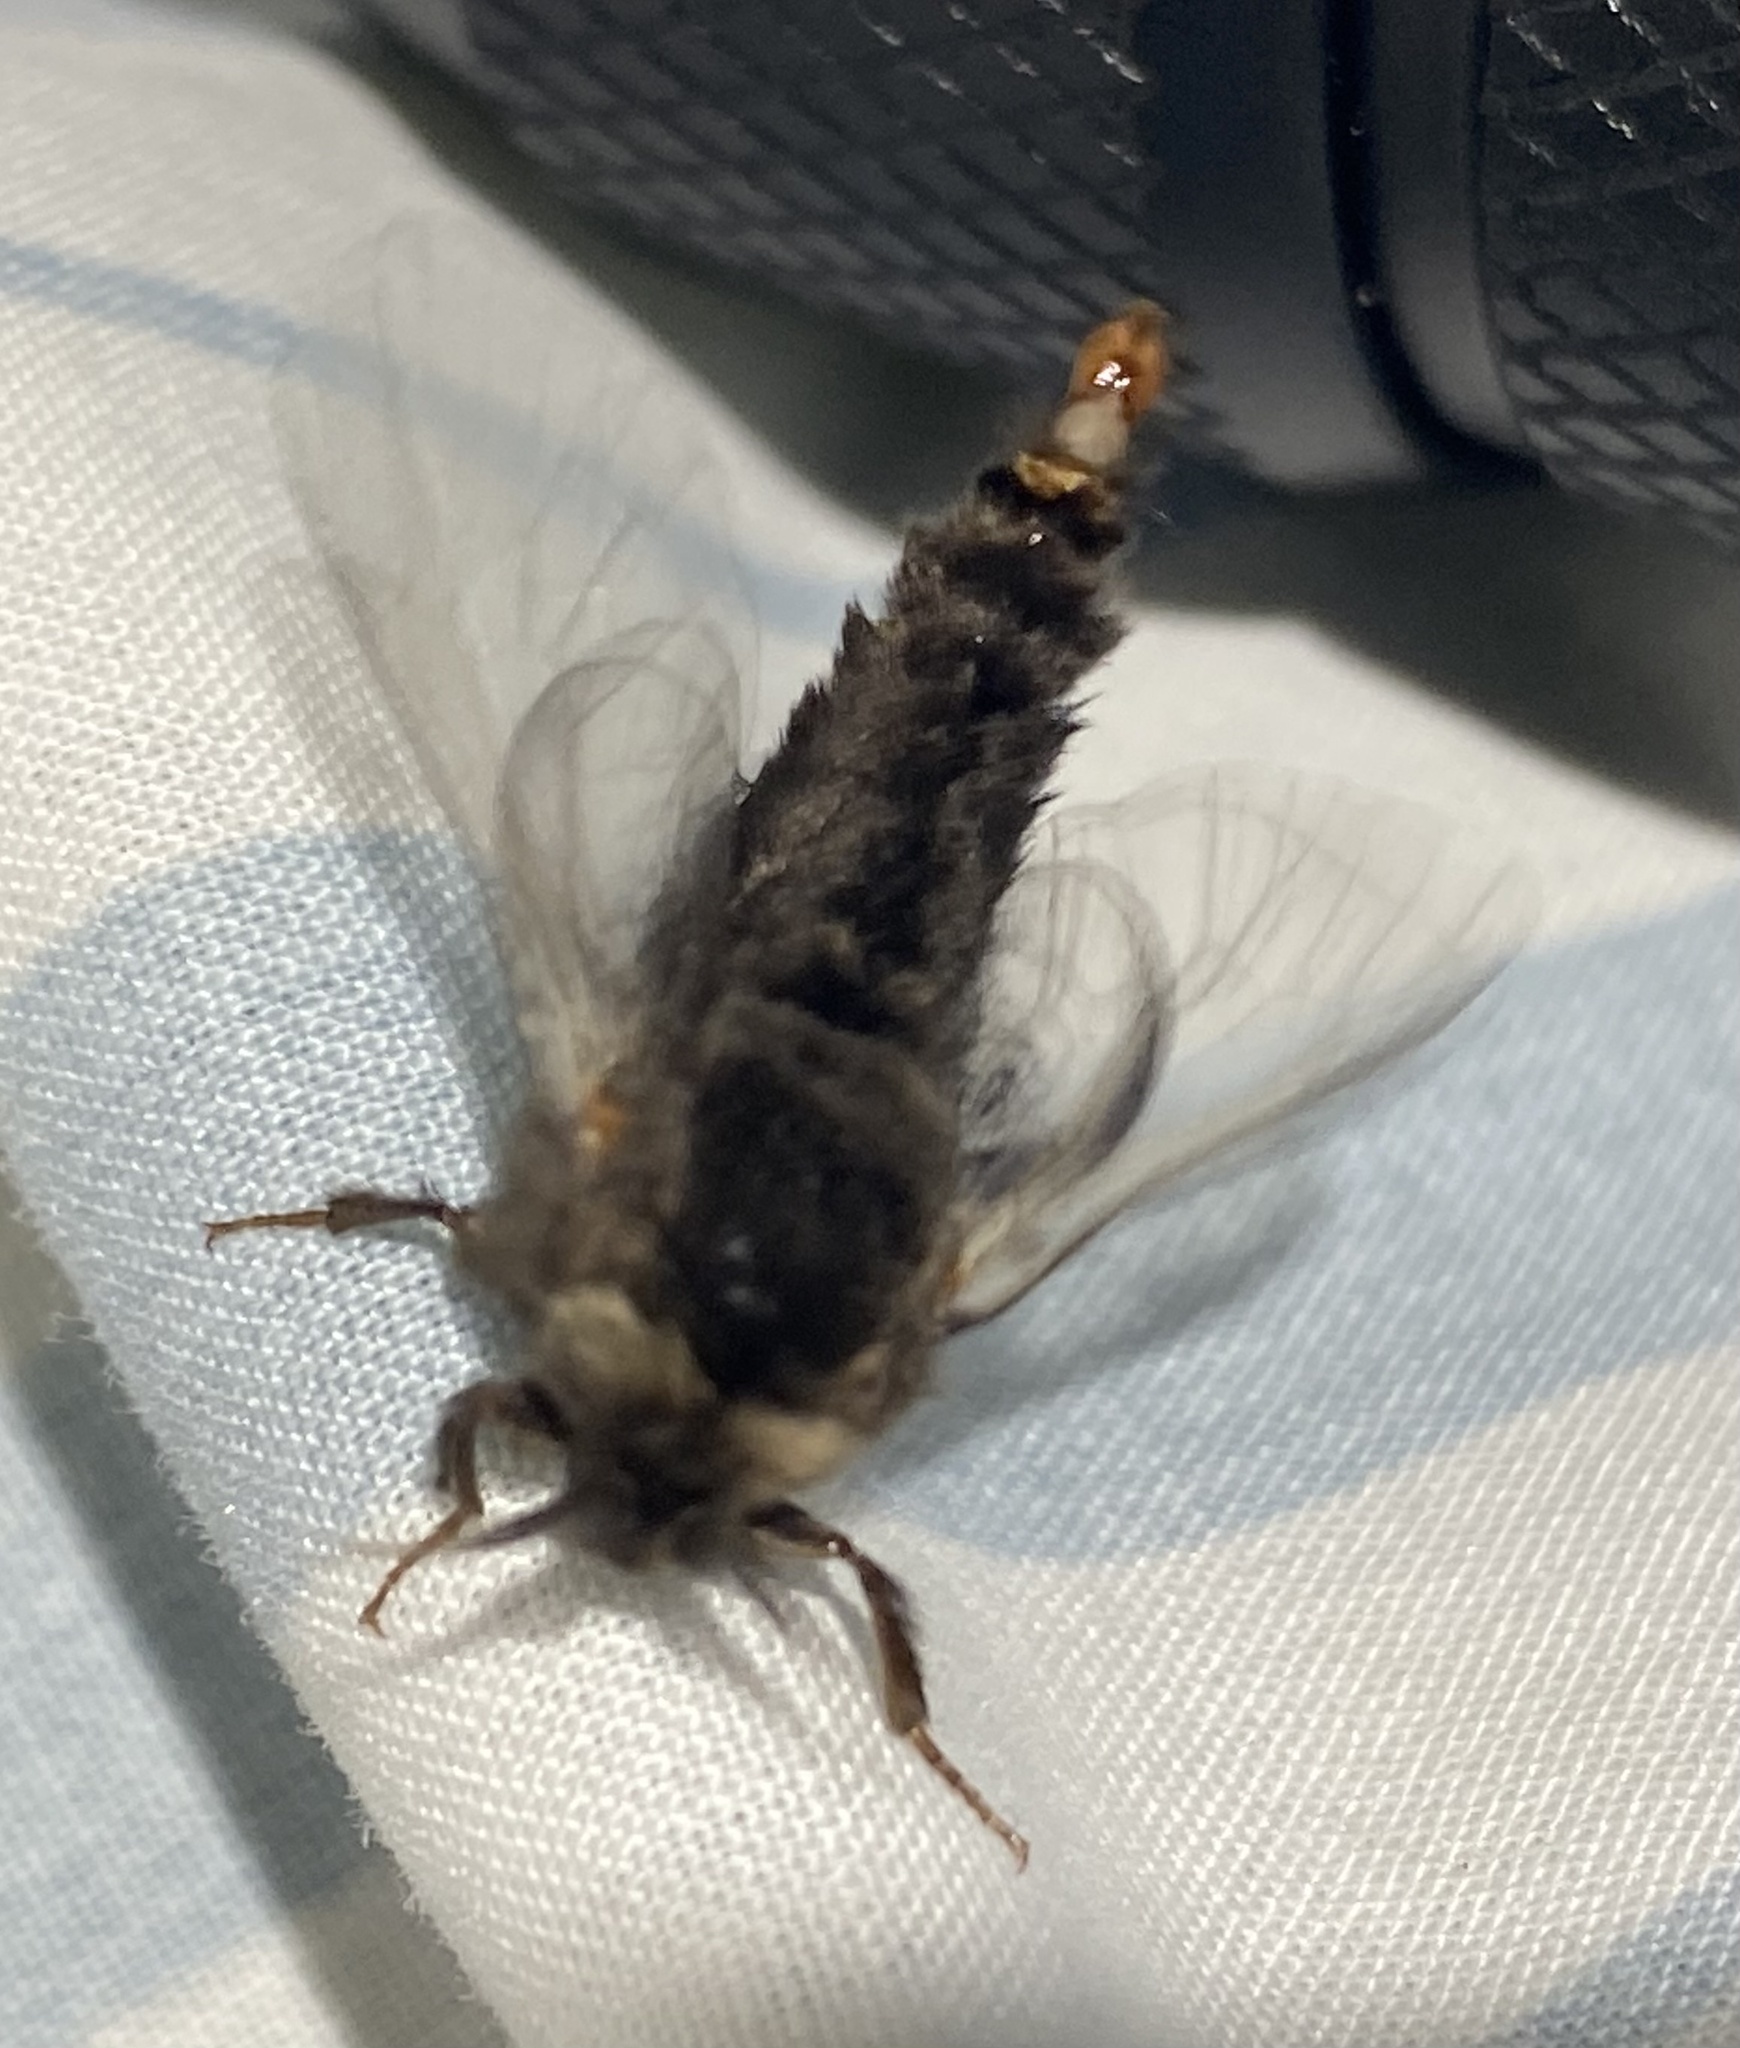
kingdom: Animalia
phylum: Arthropoda
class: Insecta
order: Lepidoptera
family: Psychidae
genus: Thyridopteryx
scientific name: Thyridopteryx ephemeraeformis
